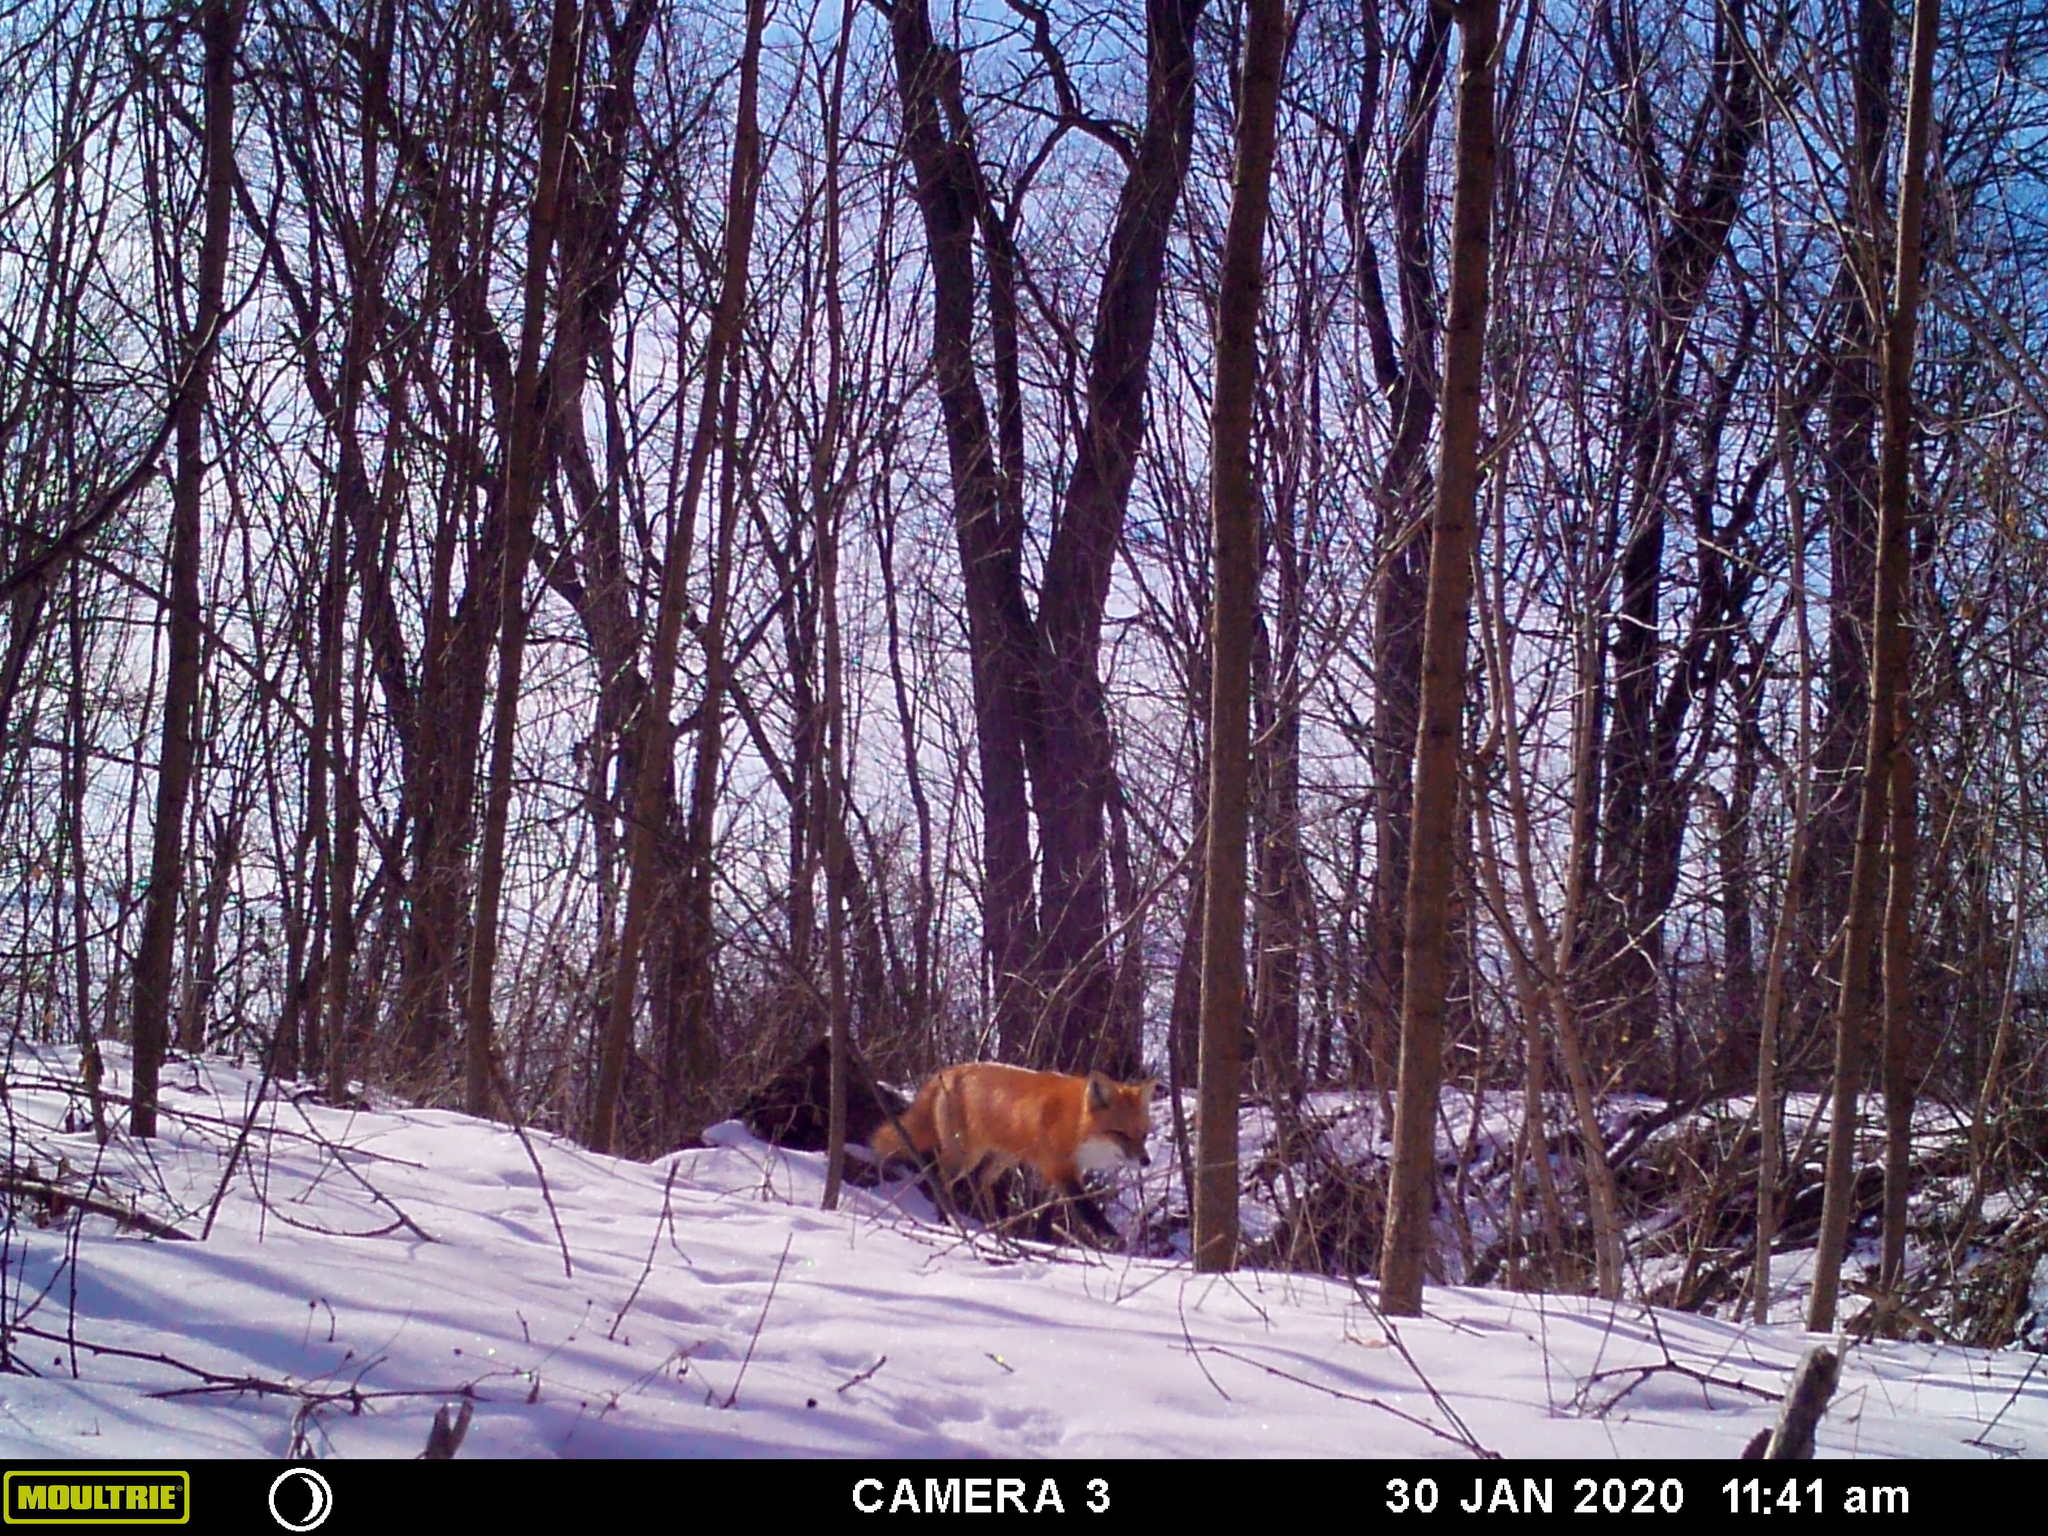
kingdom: Animalia
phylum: Chordata
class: Mammalia
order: Carnivora
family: Canidae
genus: Vulpes
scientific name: Vulpes vulpes
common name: Red fox
